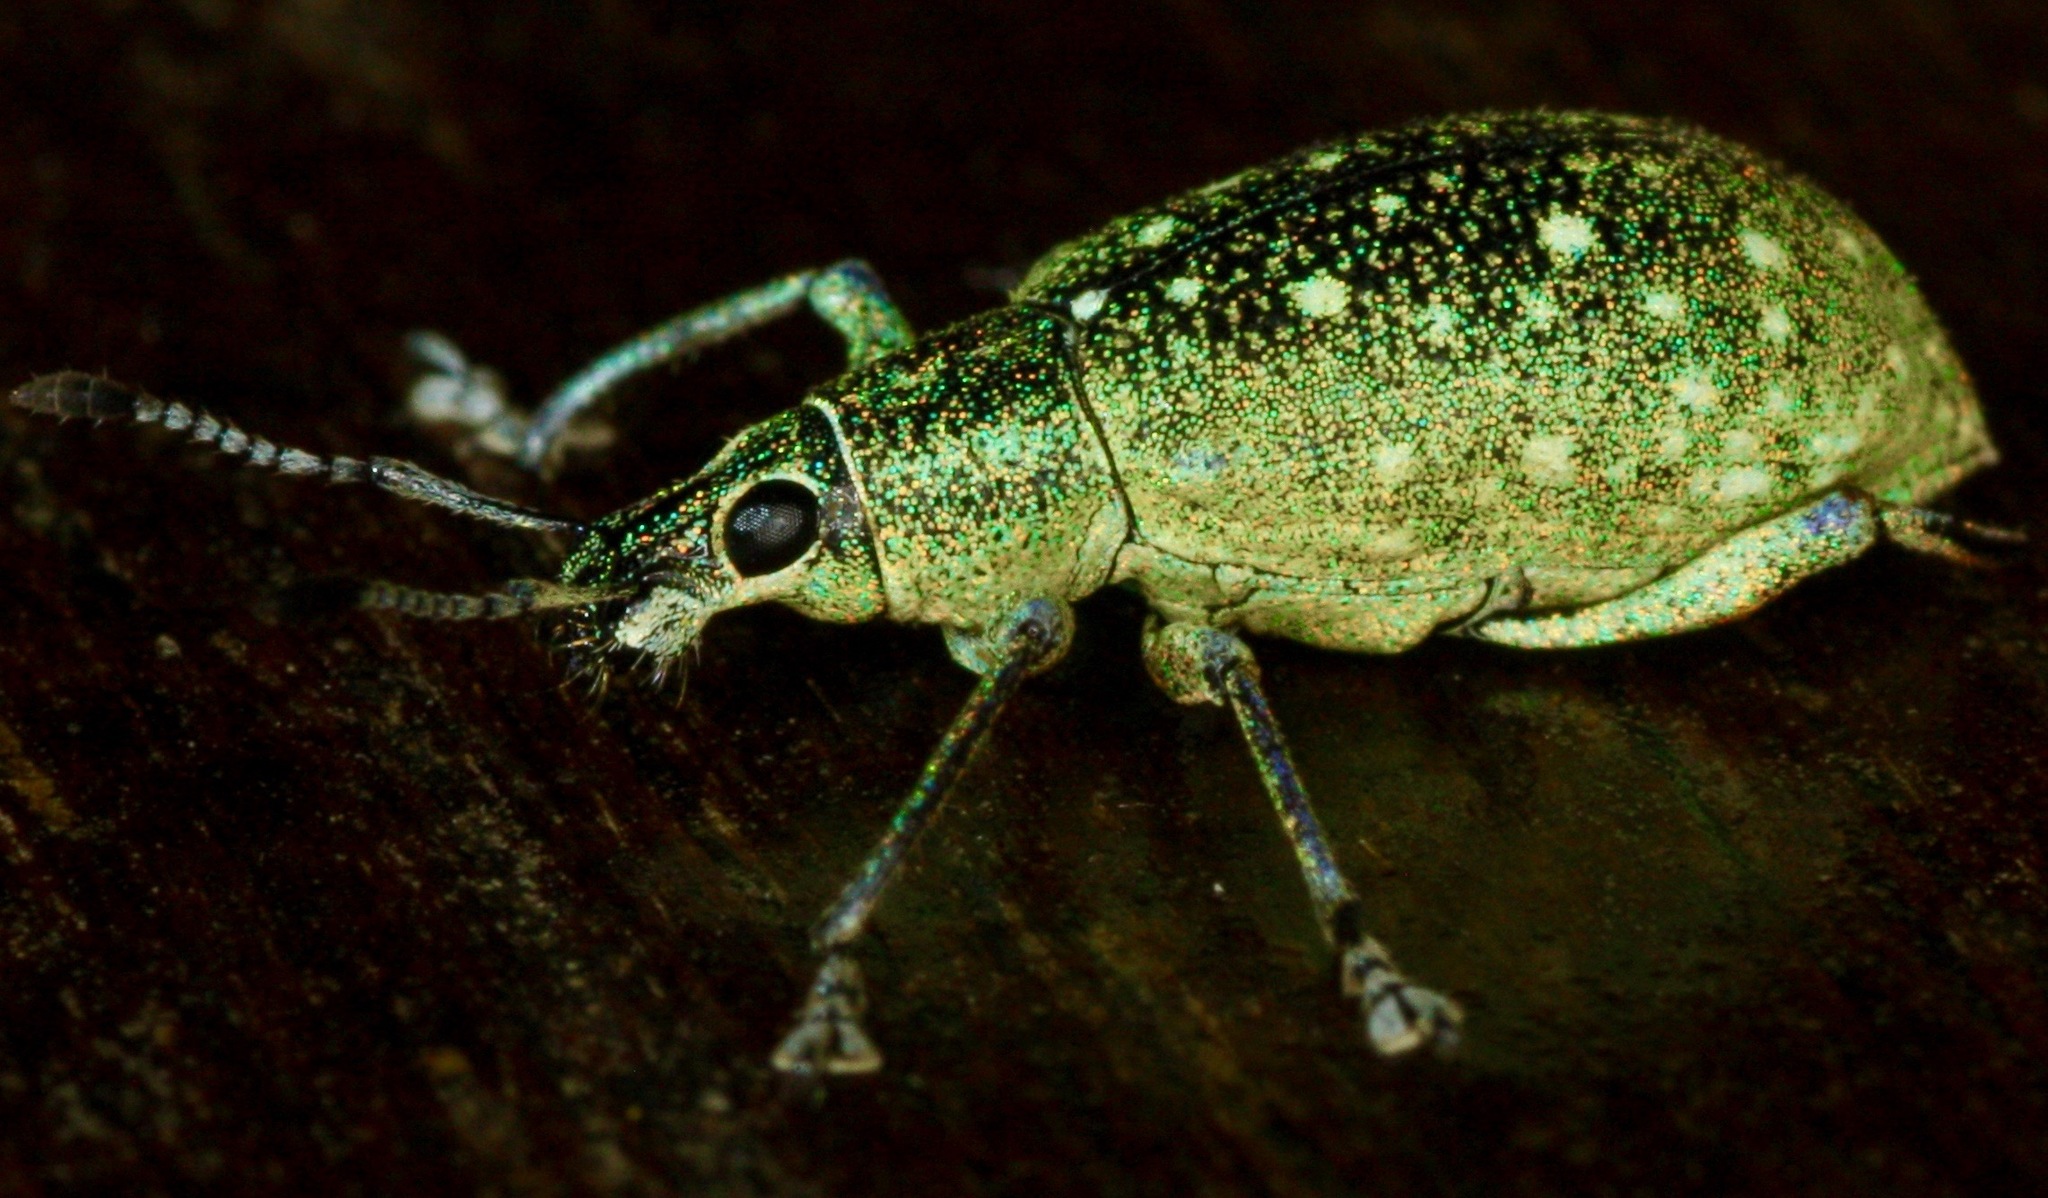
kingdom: Animalia
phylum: Arthropoda
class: Insecta
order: Coleoptera
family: Curculionidae
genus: Exophthalmus
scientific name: Exophthalmus jekelianus
